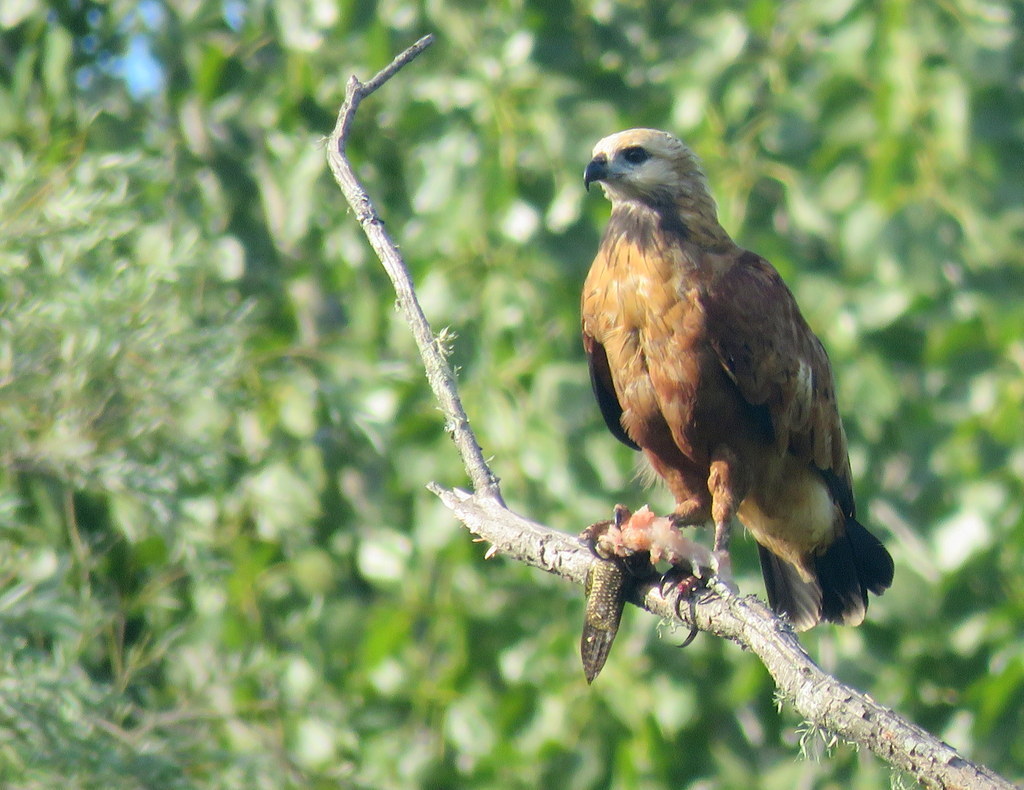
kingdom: Animalia
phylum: Chordata
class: Aves
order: Accipitriformes
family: Accipitridae
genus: Busarellus
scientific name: Busarellus nigricollis
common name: Black-collared hawk
